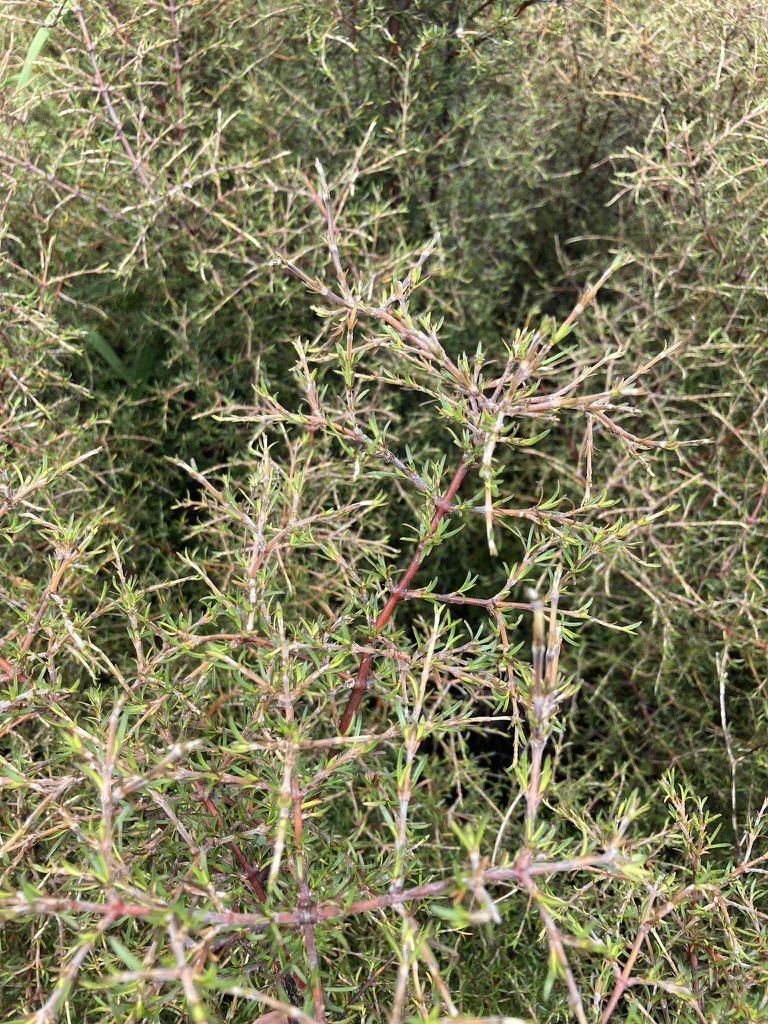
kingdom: Plantae
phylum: Tracheophyta
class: Magnoliopsida
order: Gentianales
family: Rubiaceae
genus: Coprosma
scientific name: Coprosma rugosa
